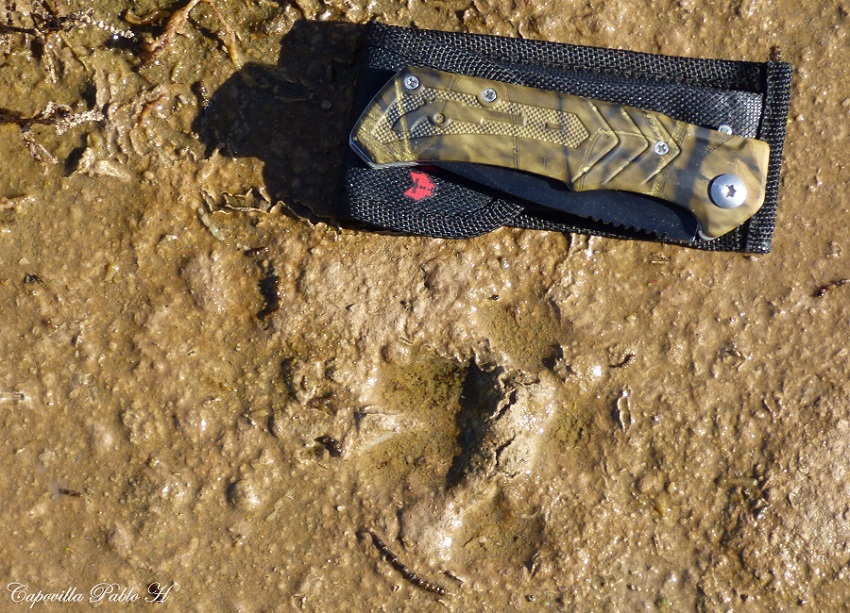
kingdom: Animalia
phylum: Chordata
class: Mammalia
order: Carnivora
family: Canidae
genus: Chrysocyon
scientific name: Chrysocyon brachyurus
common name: Maned wolf
